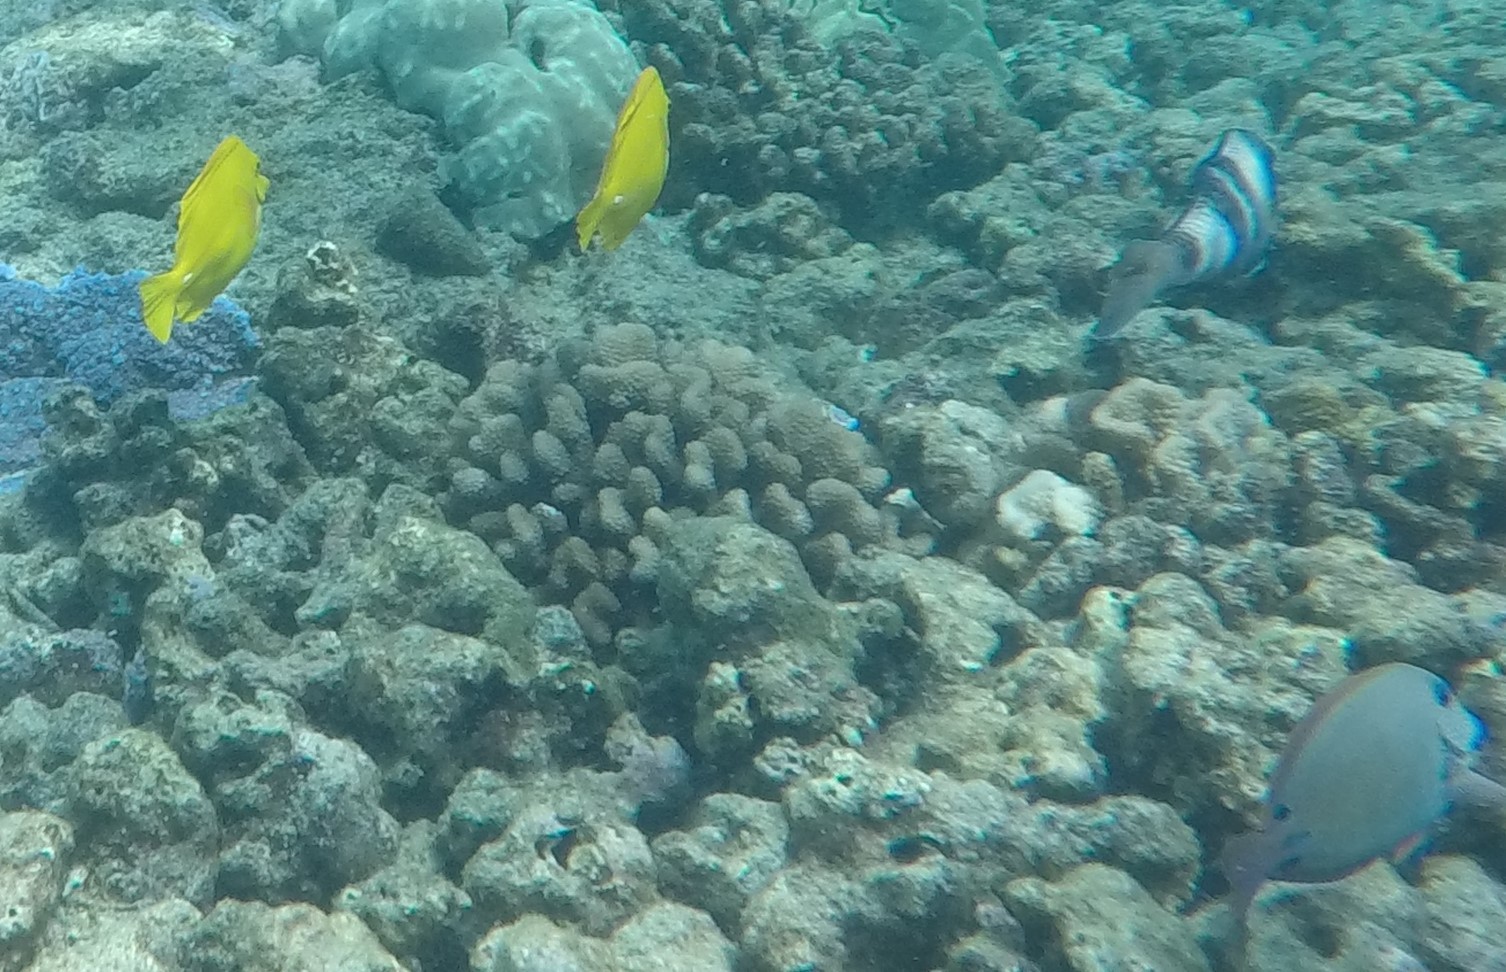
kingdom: Animalia
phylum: Chordata
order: Perciformes
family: Acanthuridae
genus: Zebrasoma
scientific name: Zebrasoma flavescens
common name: Yellow tang
